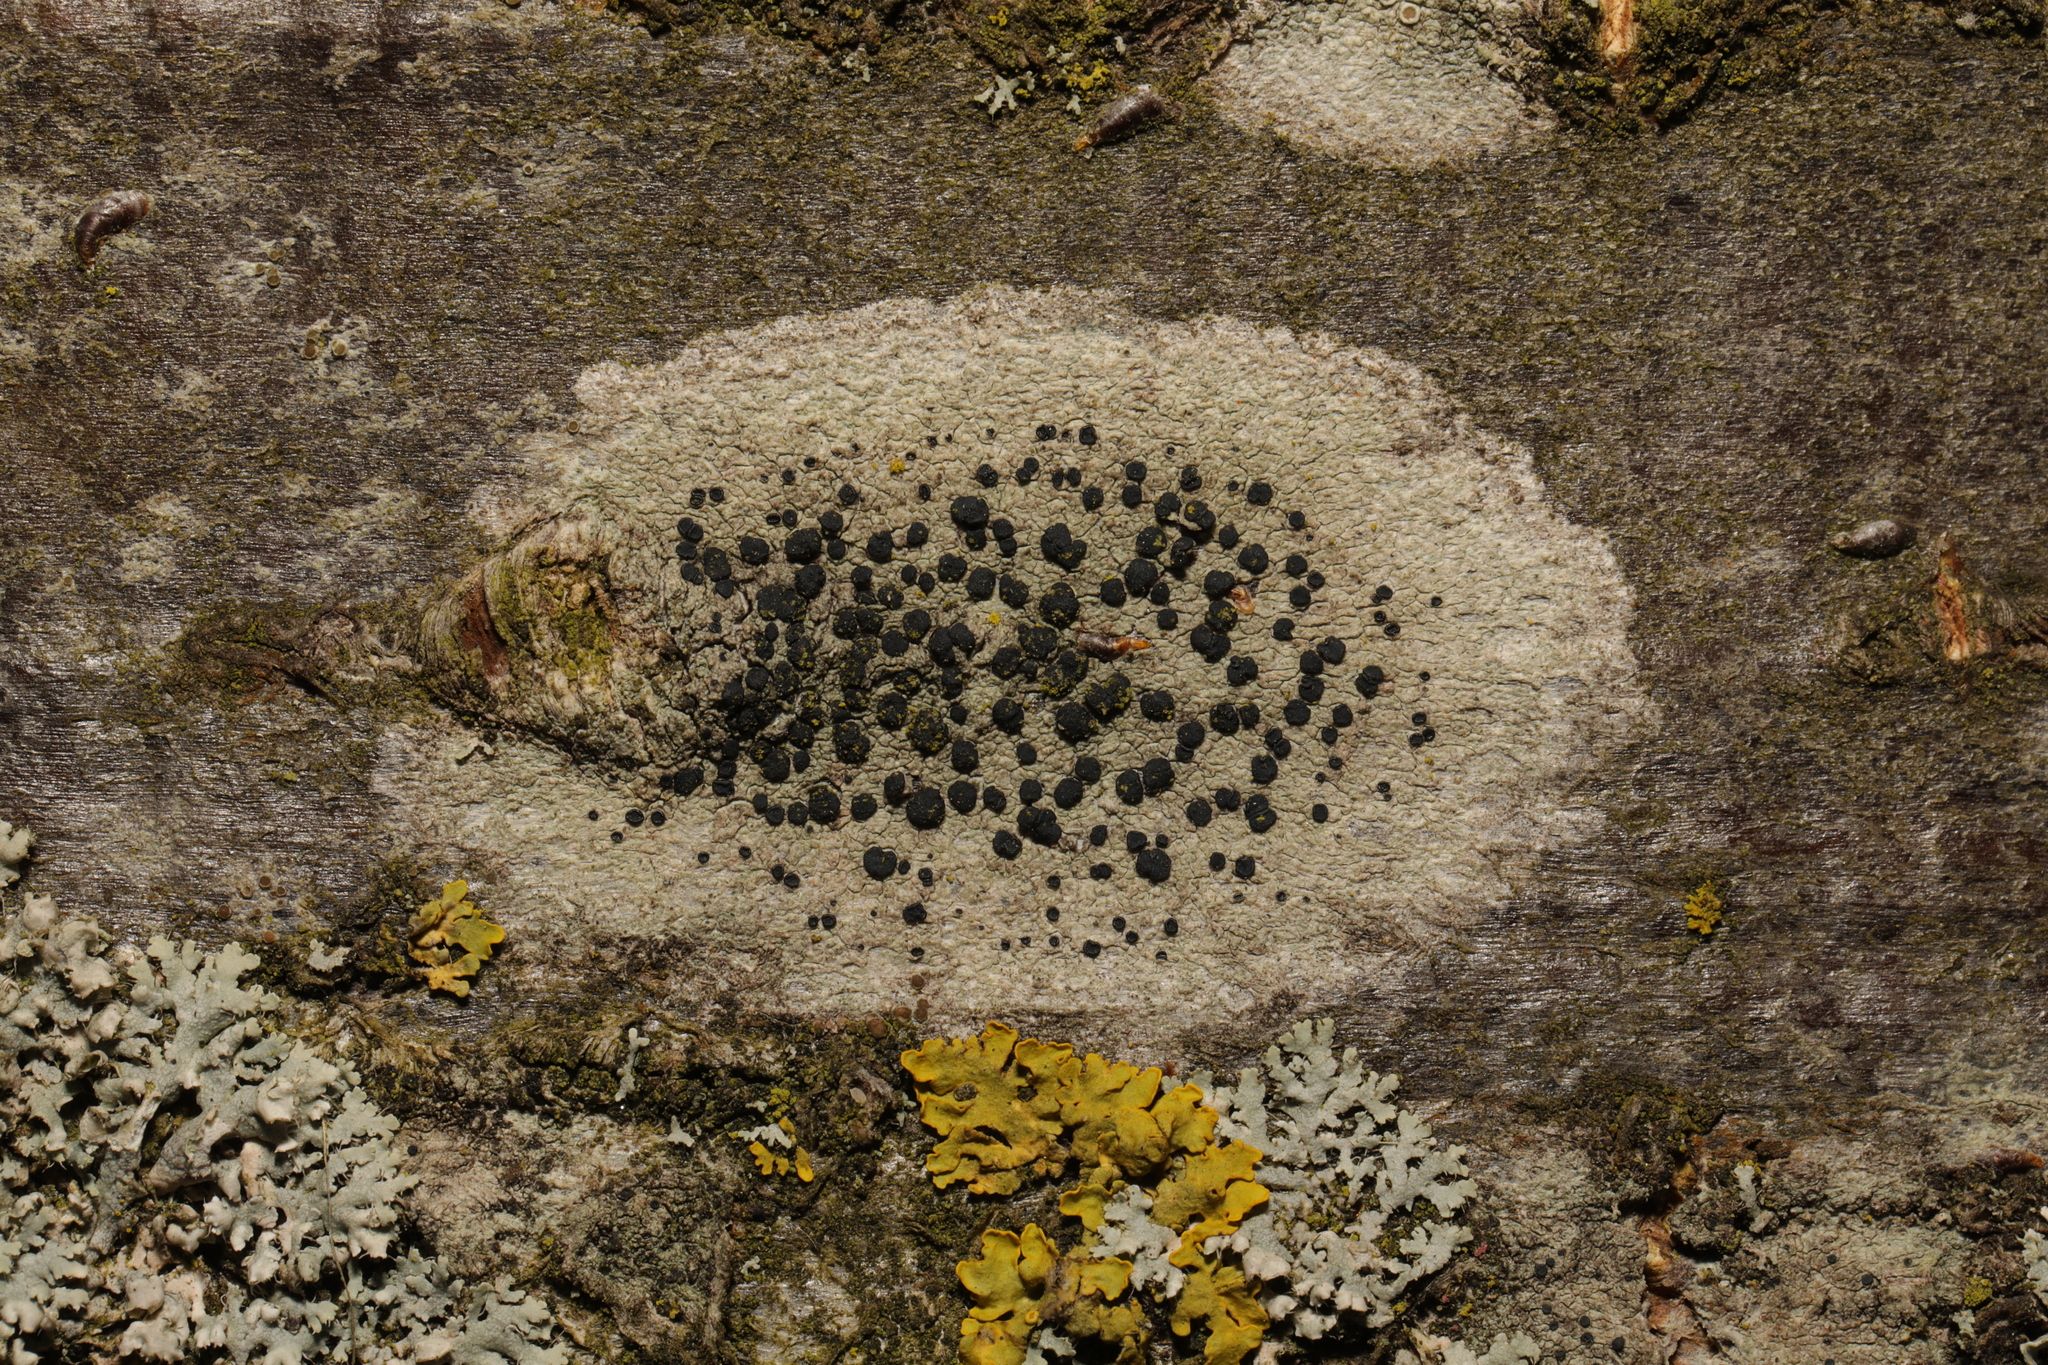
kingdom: Fungi
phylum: Ascomycota
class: Lecanoromycetes
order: Lecanorales
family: Lecanoraceae
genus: Lecidella
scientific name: Lecidella elaeochroma
